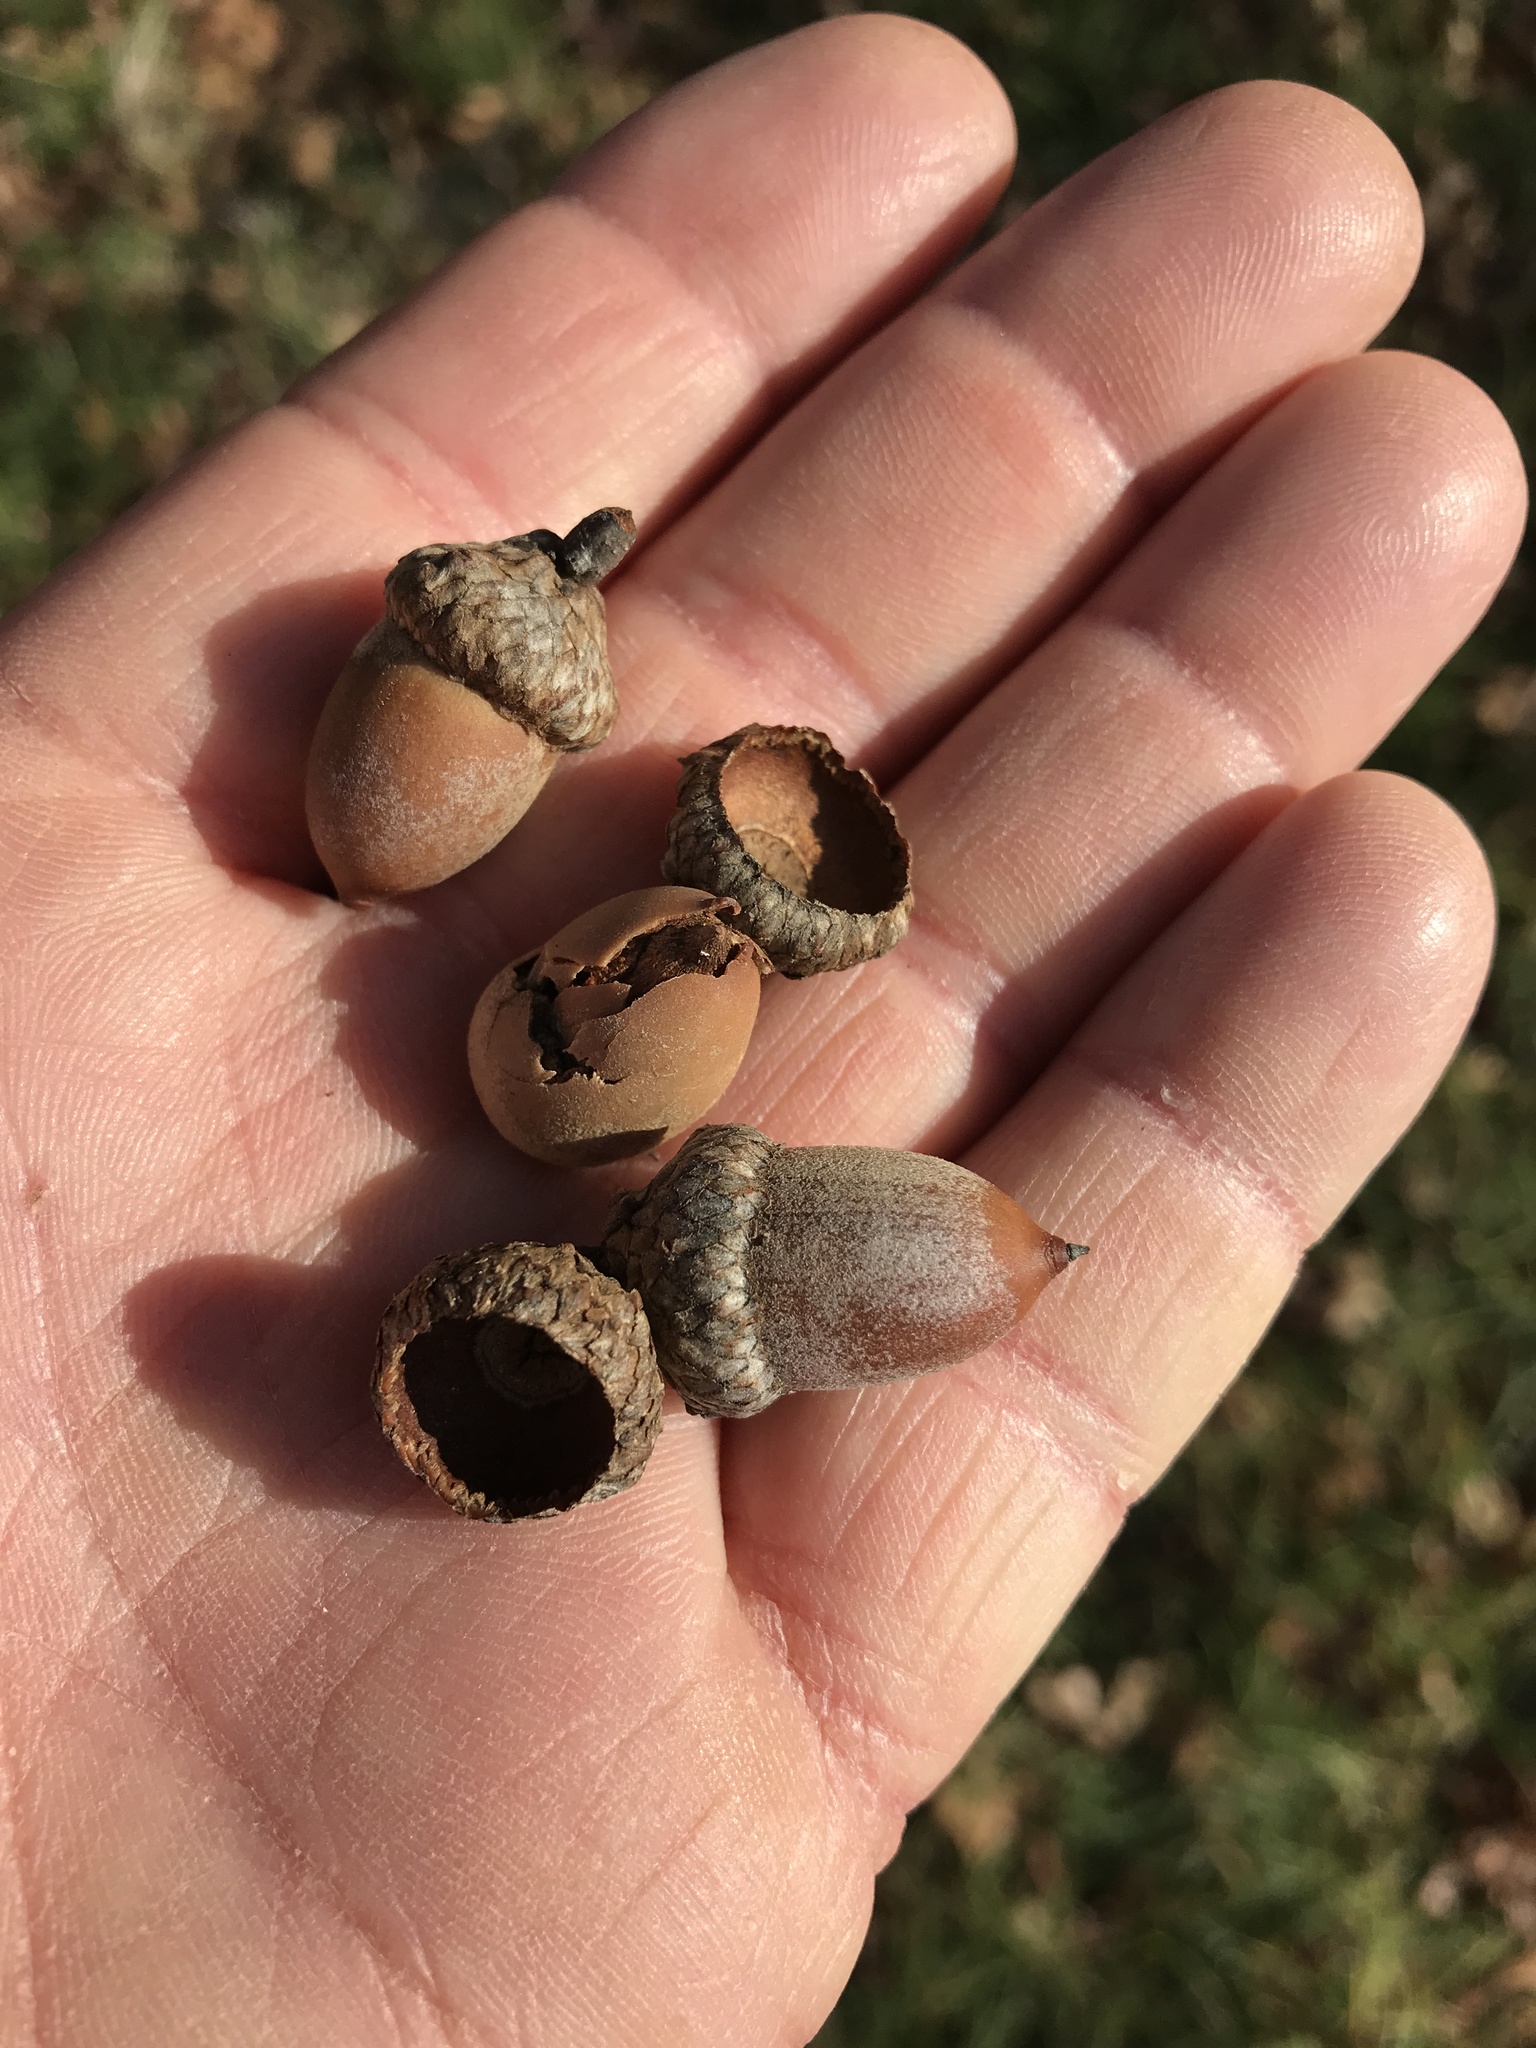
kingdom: Plantae
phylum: Tracheophyta
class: Magnoliopsida
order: Fagales
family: Fagaceae
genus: Quercus
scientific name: Quercus buckleyi
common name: Buckley oak
